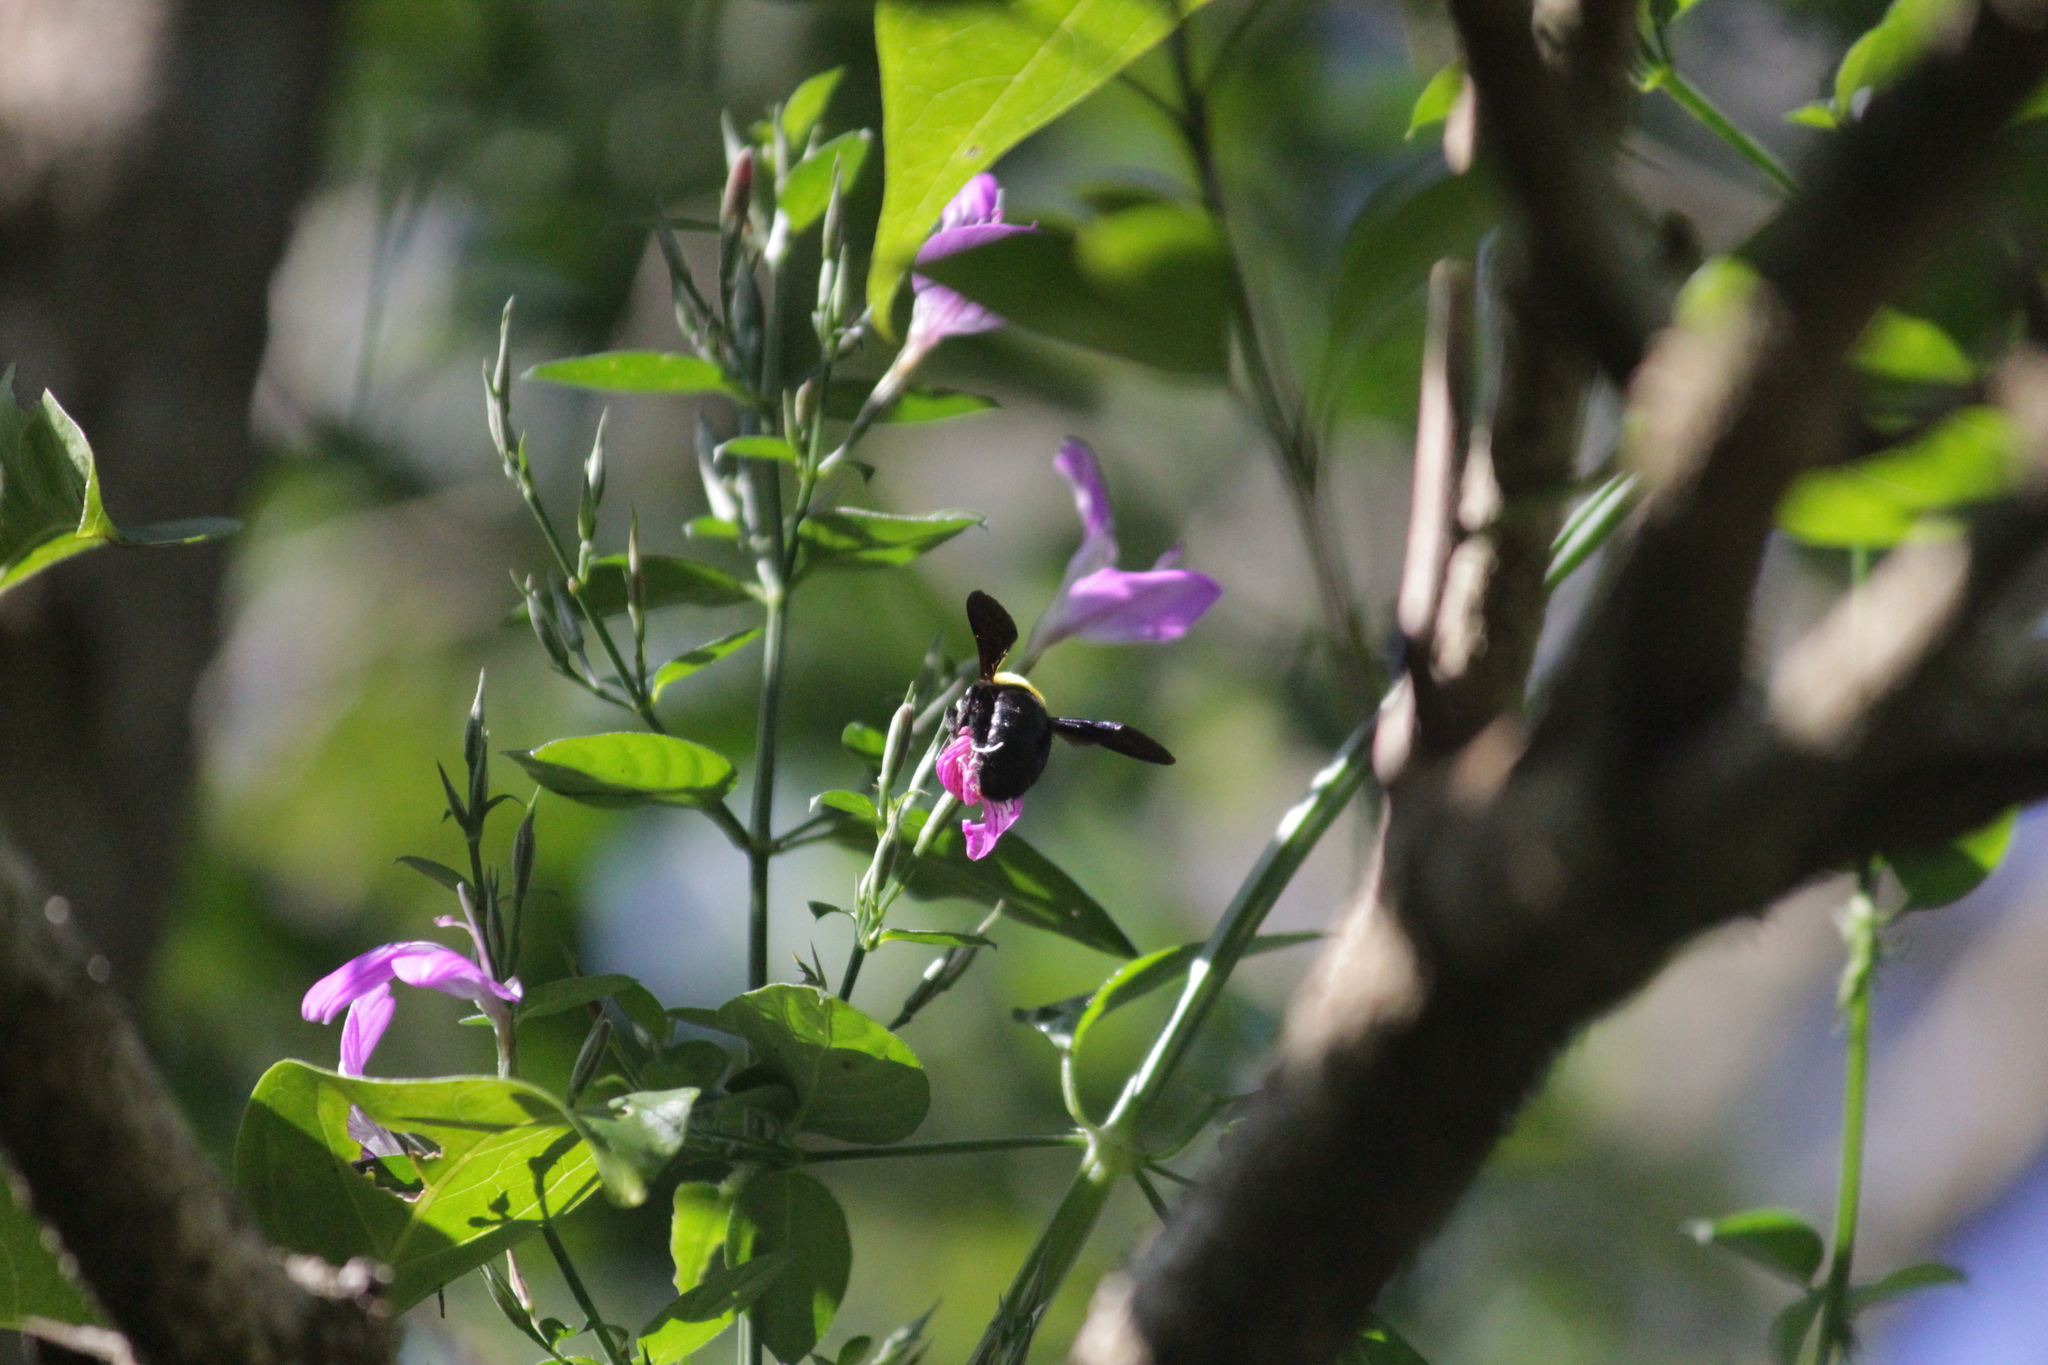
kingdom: Animalia
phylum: Arthropoda
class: Insecta
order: Hymenoptera
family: Apidae
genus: Xylocopa
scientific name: Xylocopa flavicollis
